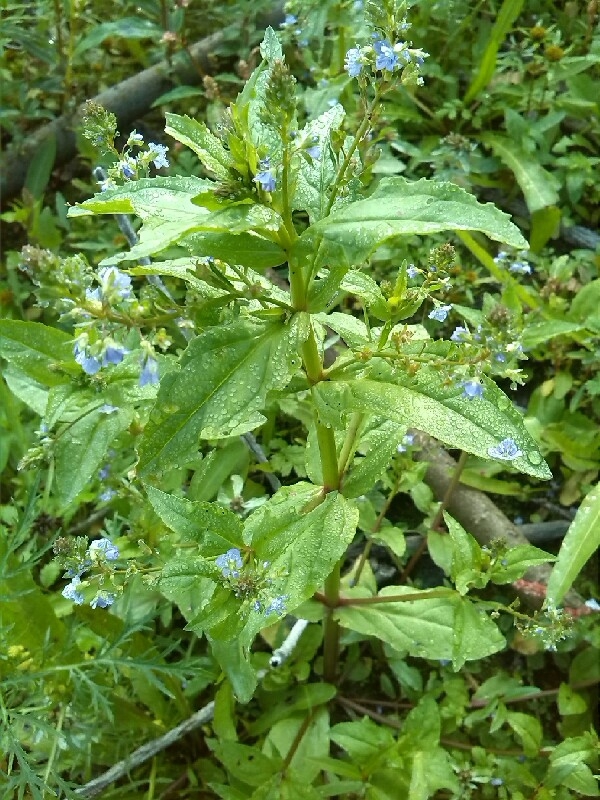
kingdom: Plantae
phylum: Tracheophyta
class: Magnoliopsida
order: Lamiales
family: Plantaginaceae
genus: Veronica
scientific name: Veronica anagallis-aquatica
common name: Water speedwell
